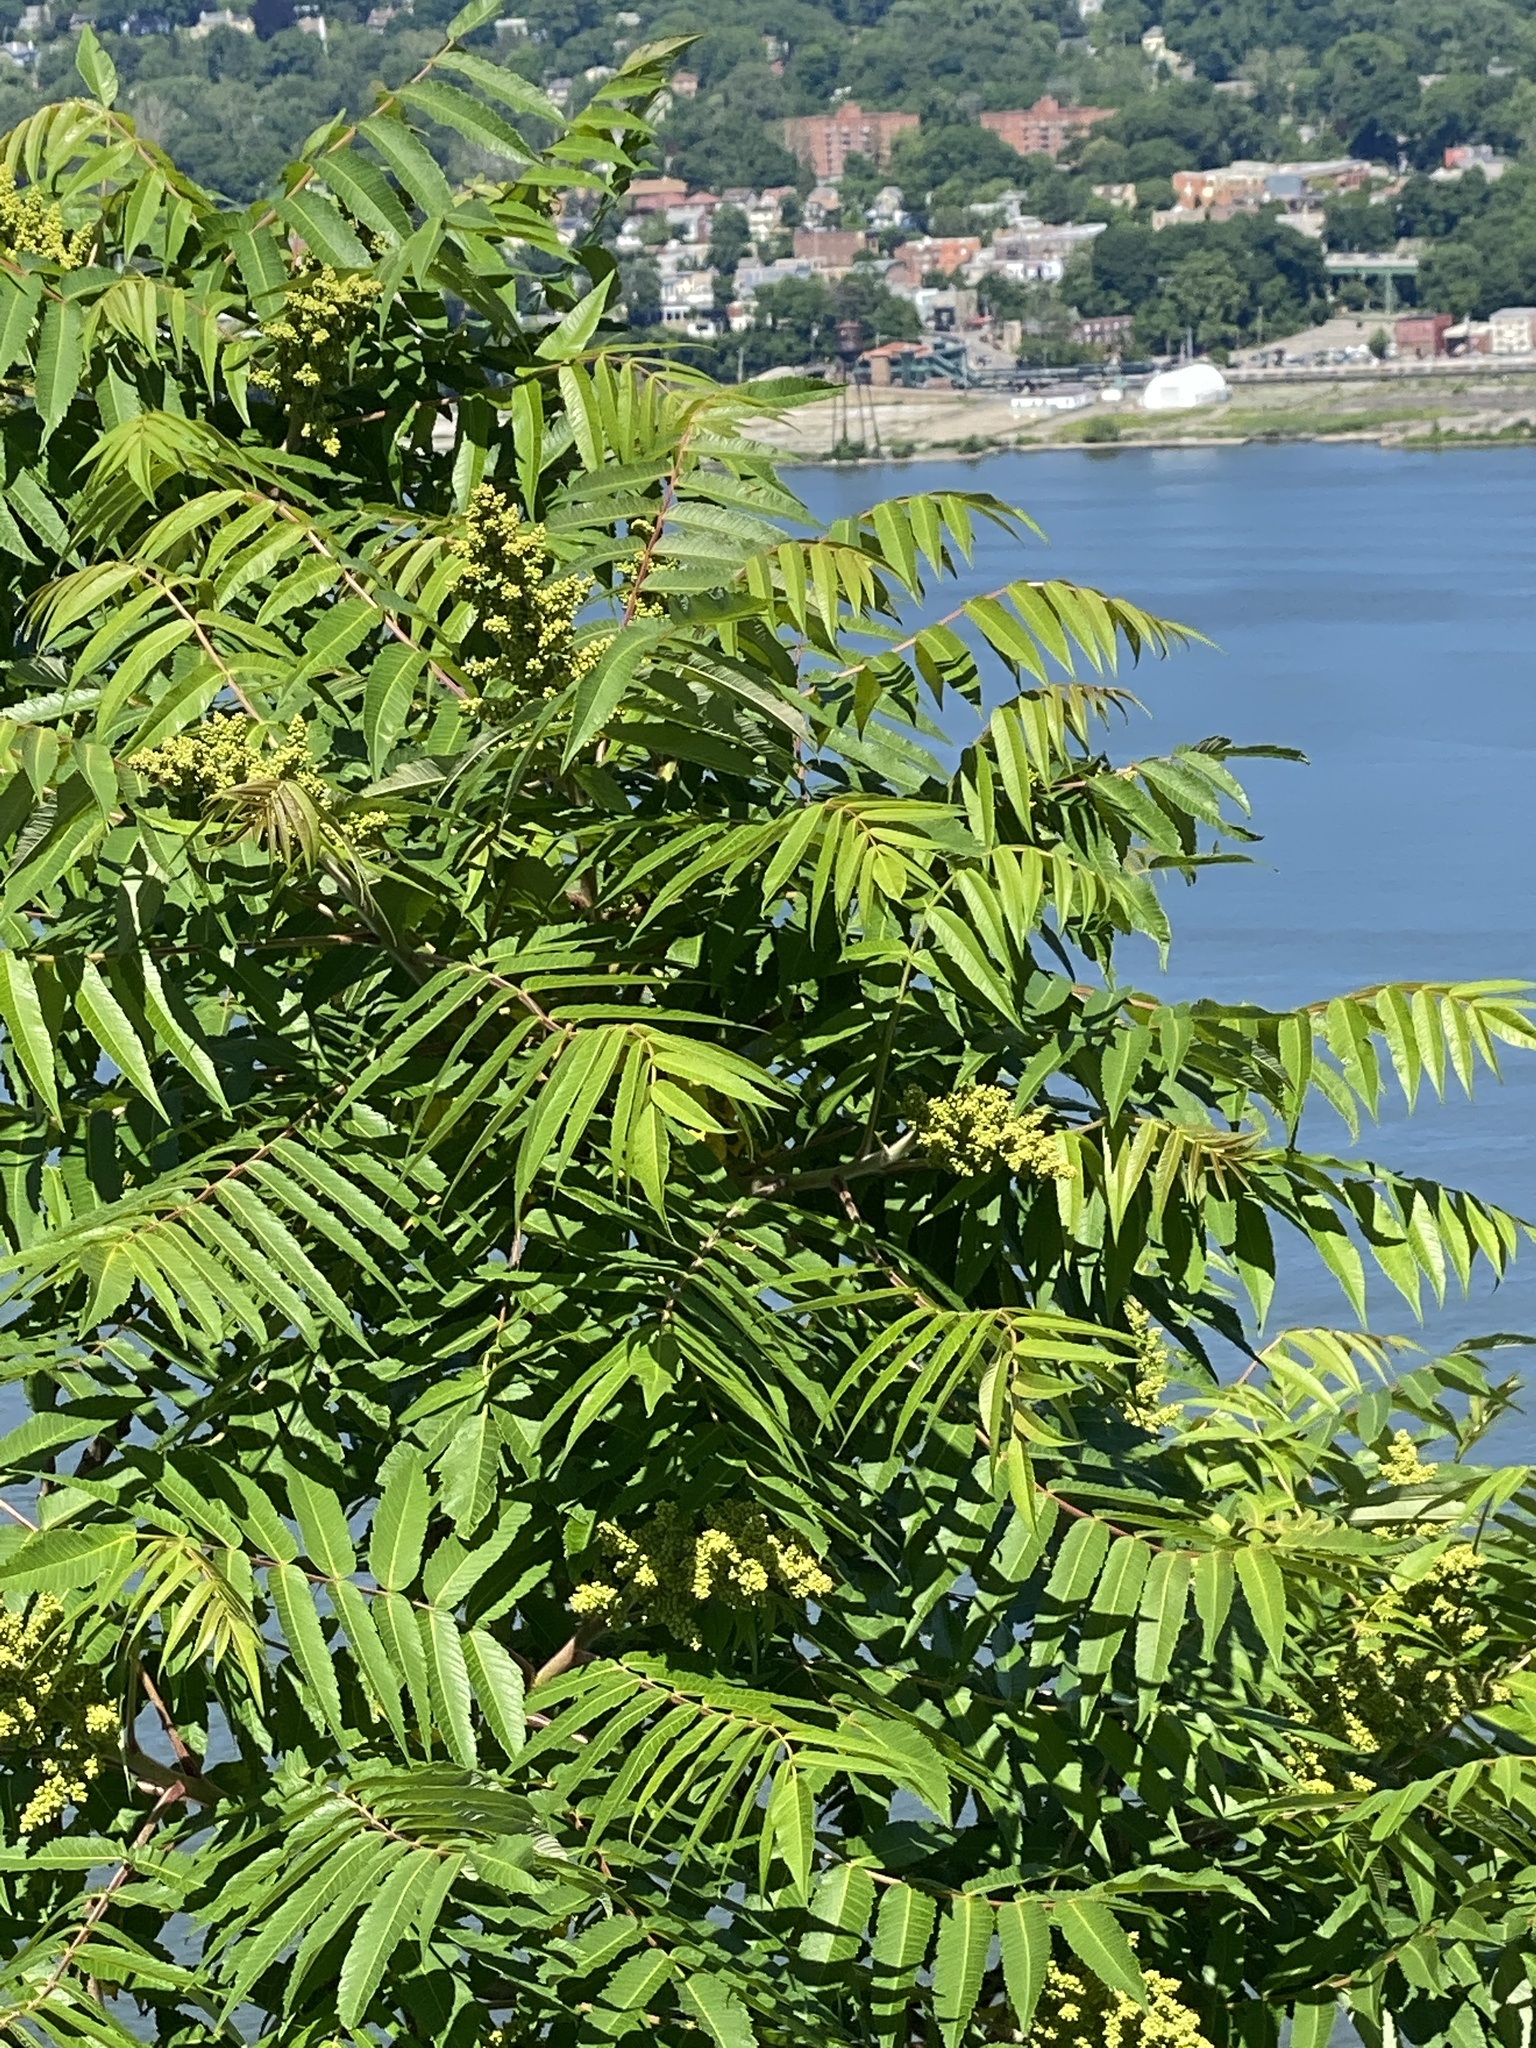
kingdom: Plantae
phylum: Tracheophyta
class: Magnoliopsida
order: Sapindales
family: Anacardiaceae
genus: Rhus
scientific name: Rhus typhina
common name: Staghorn sumac
